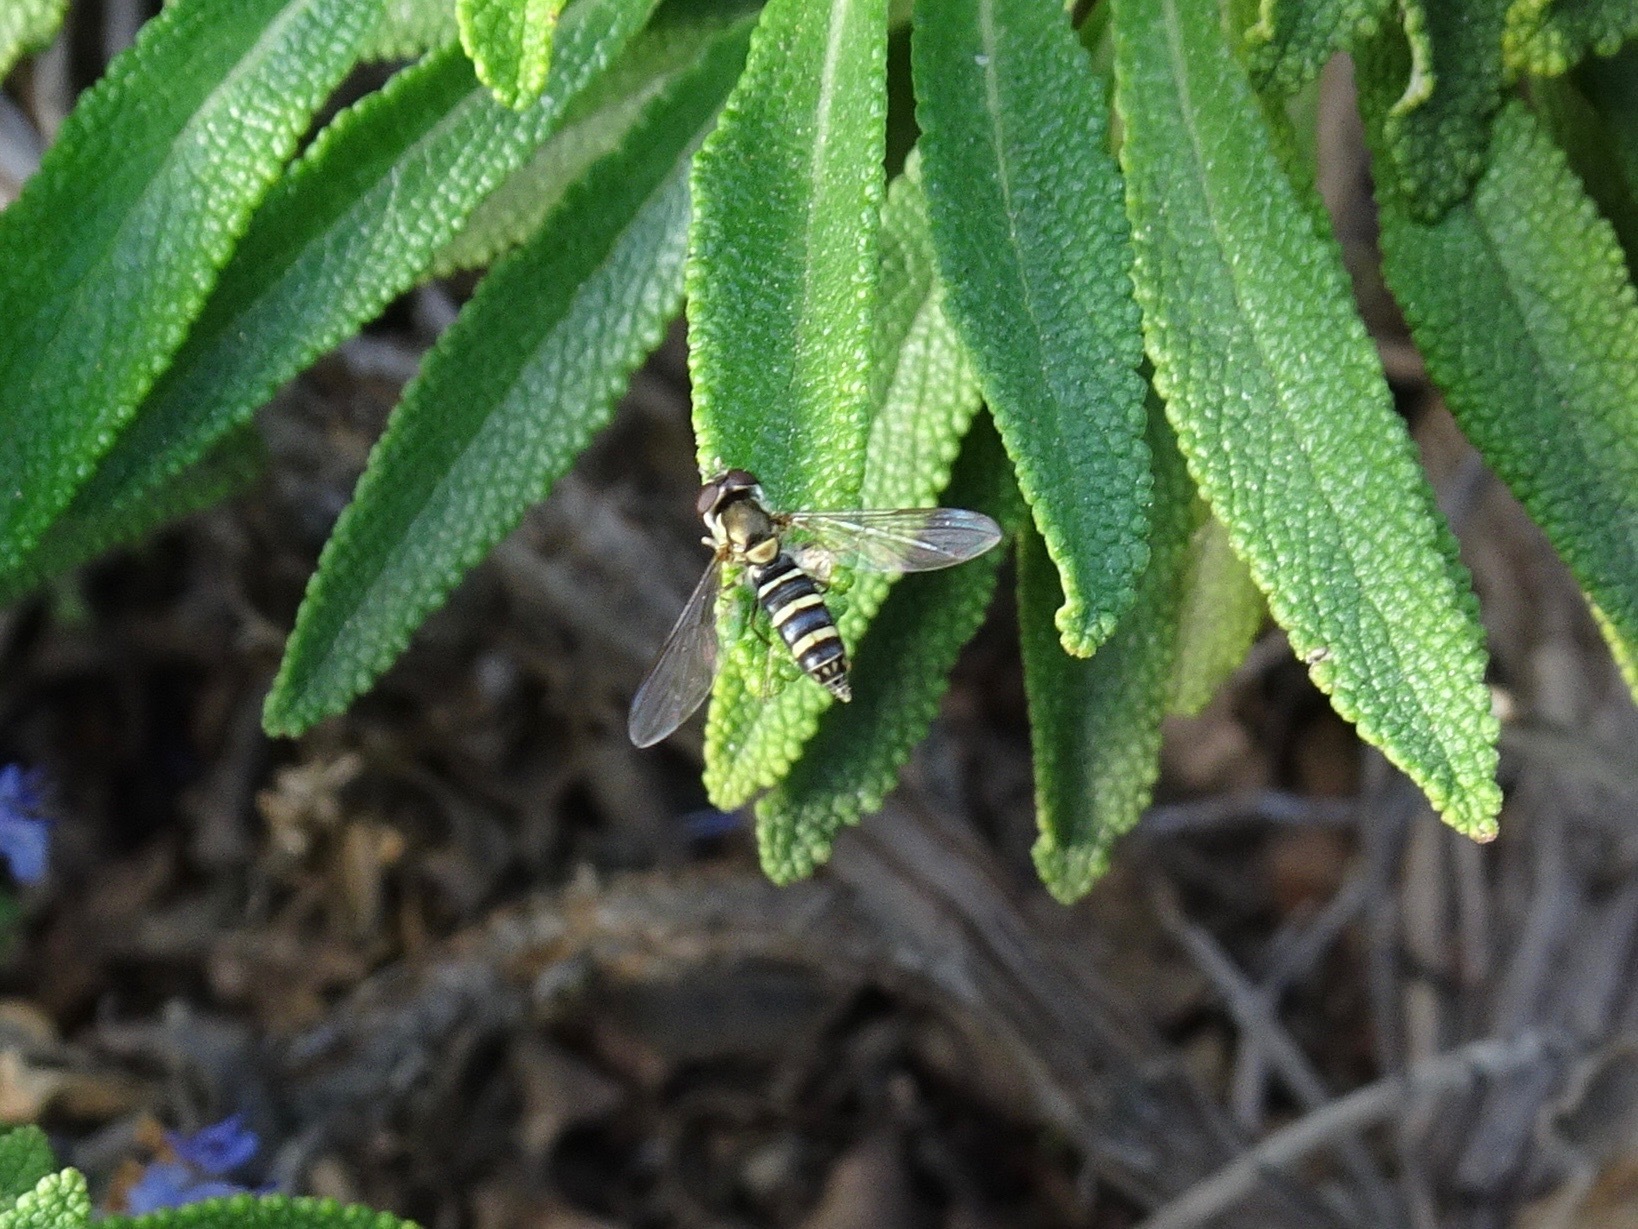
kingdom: Animalia
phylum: Arthropoda
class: Insecta
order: Diptera
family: Syrphidae
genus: Fazia
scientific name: Fazia micrura
